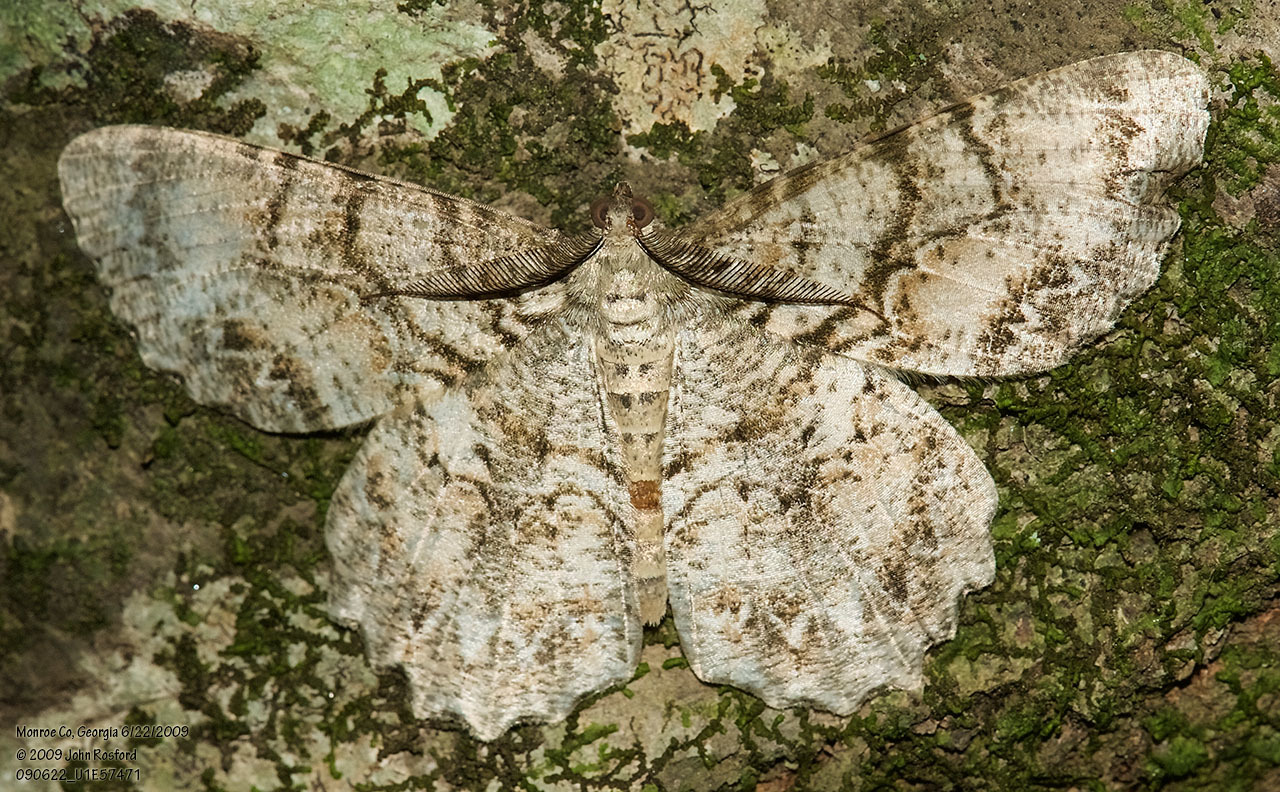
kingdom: Animalia
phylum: Arthropoda
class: Insecta
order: Lepidoptera
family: Geometridae
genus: Epimecis
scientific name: Epimecis hortaria
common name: Tulip-tree beauty
